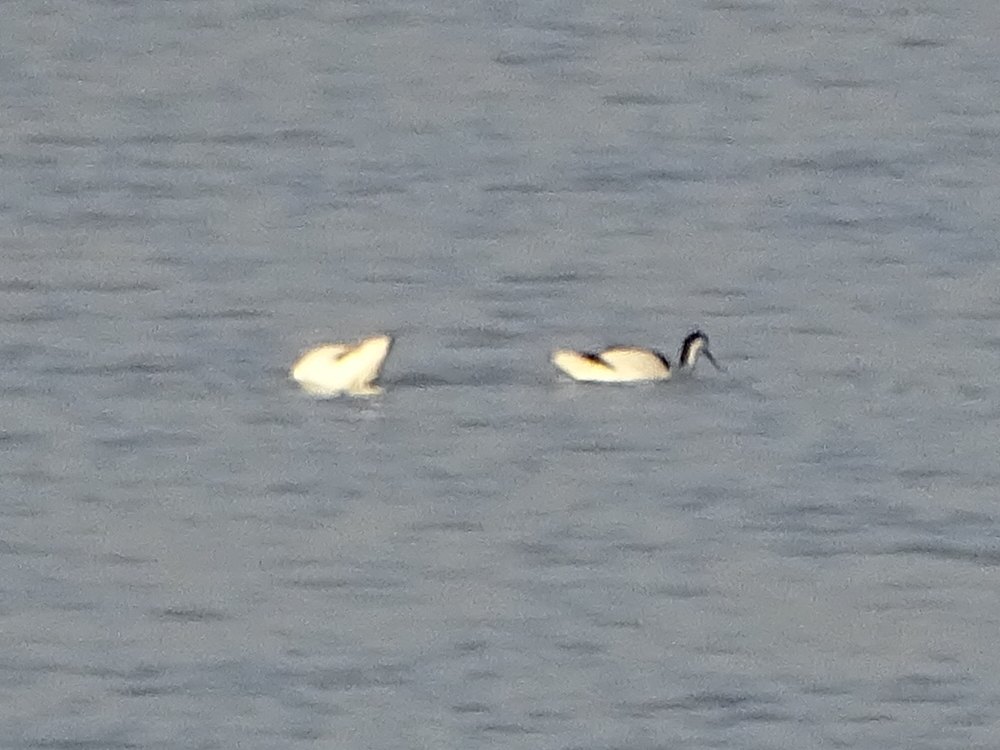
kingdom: Animalia
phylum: Chordata
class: Aves
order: Charadriiformes
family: Recurvirostridae
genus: Recurvirostra
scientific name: Recurvirostra avosetta
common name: Pied avocet
